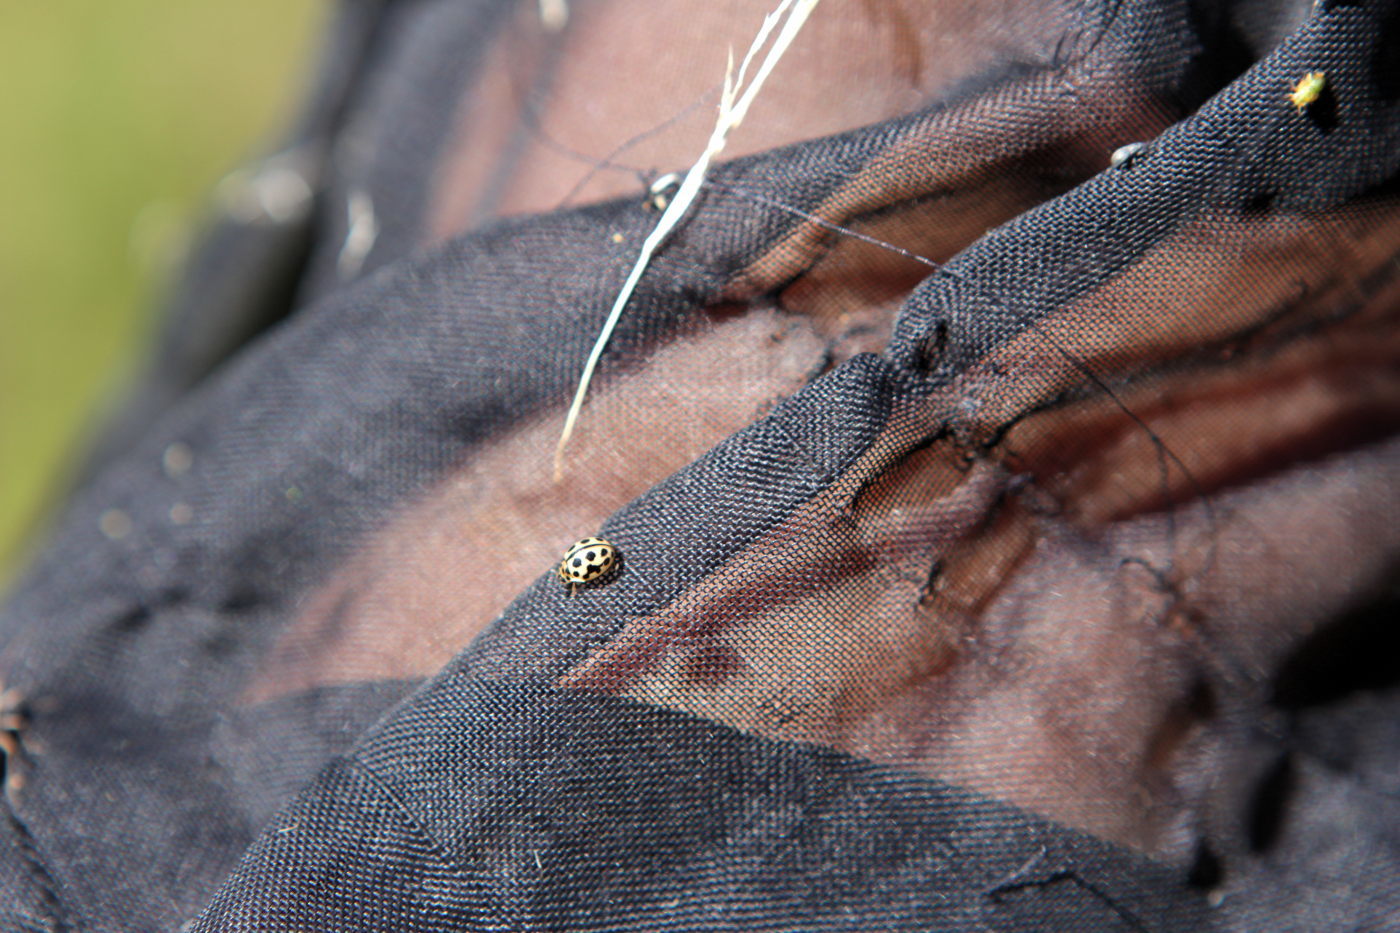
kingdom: Animalia
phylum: Arthropoda
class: Insecta
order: Coleoptera
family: Coccinellidae
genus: Tytthaspis
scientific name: Tytthaspis sedecimpunctata
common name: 16-spot ladybird
